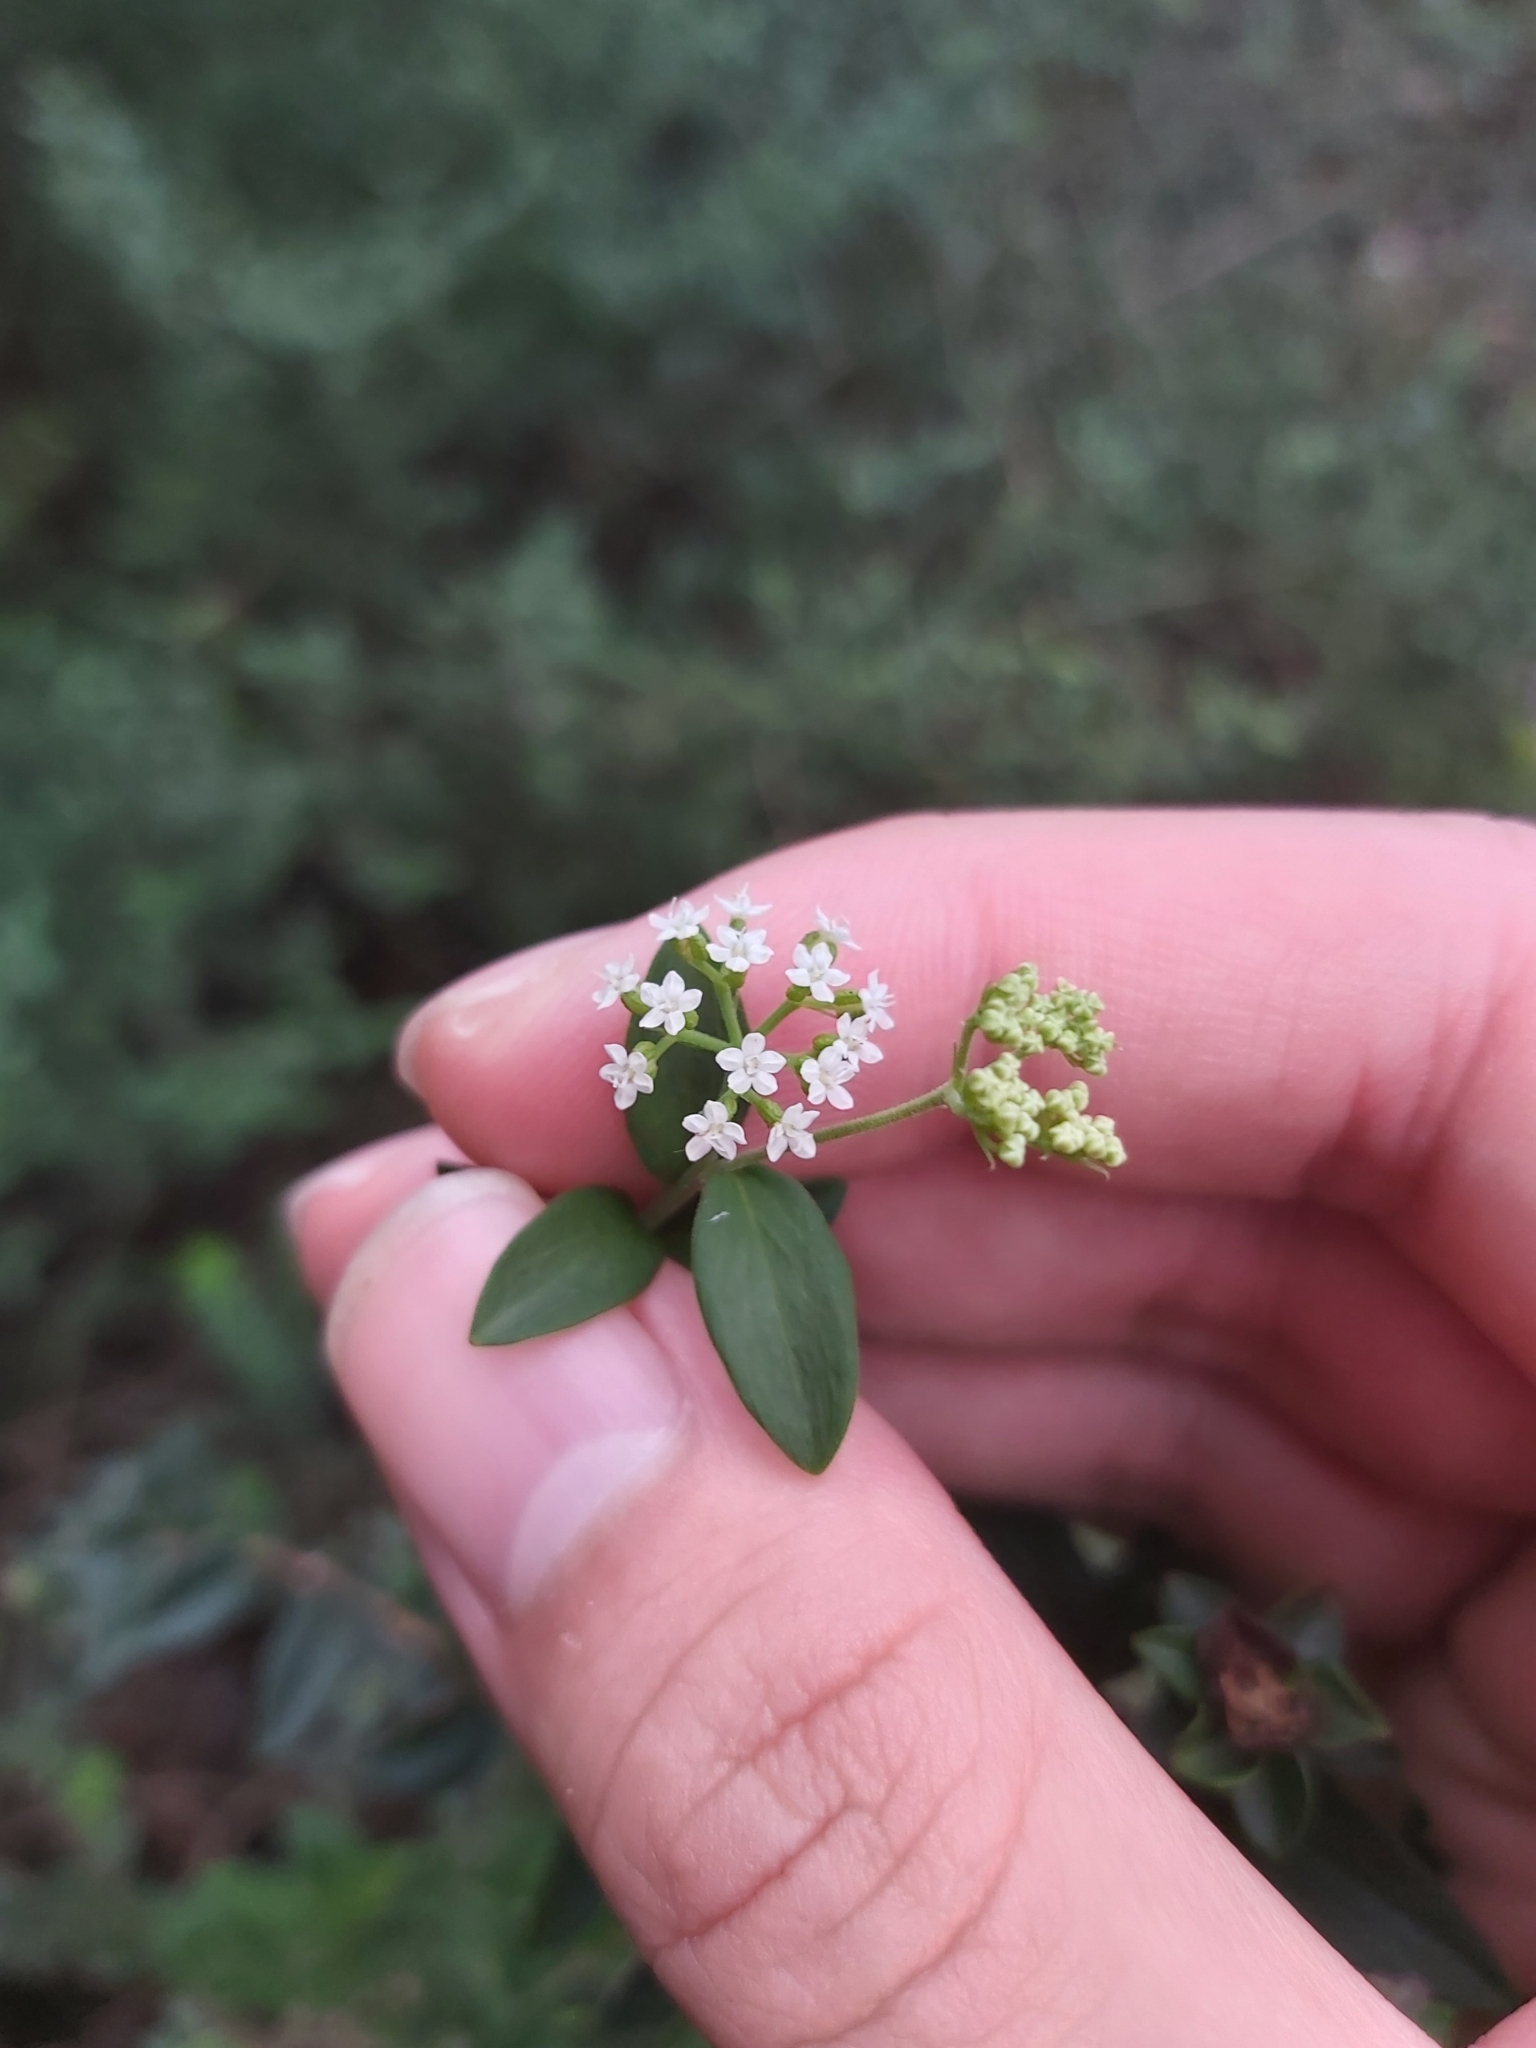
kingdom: Plantae
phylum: Tracheophyta
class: Magnoliopsida
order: Apiales
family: Apiaceae
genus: Platysace
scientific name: Platysace lanceolata
